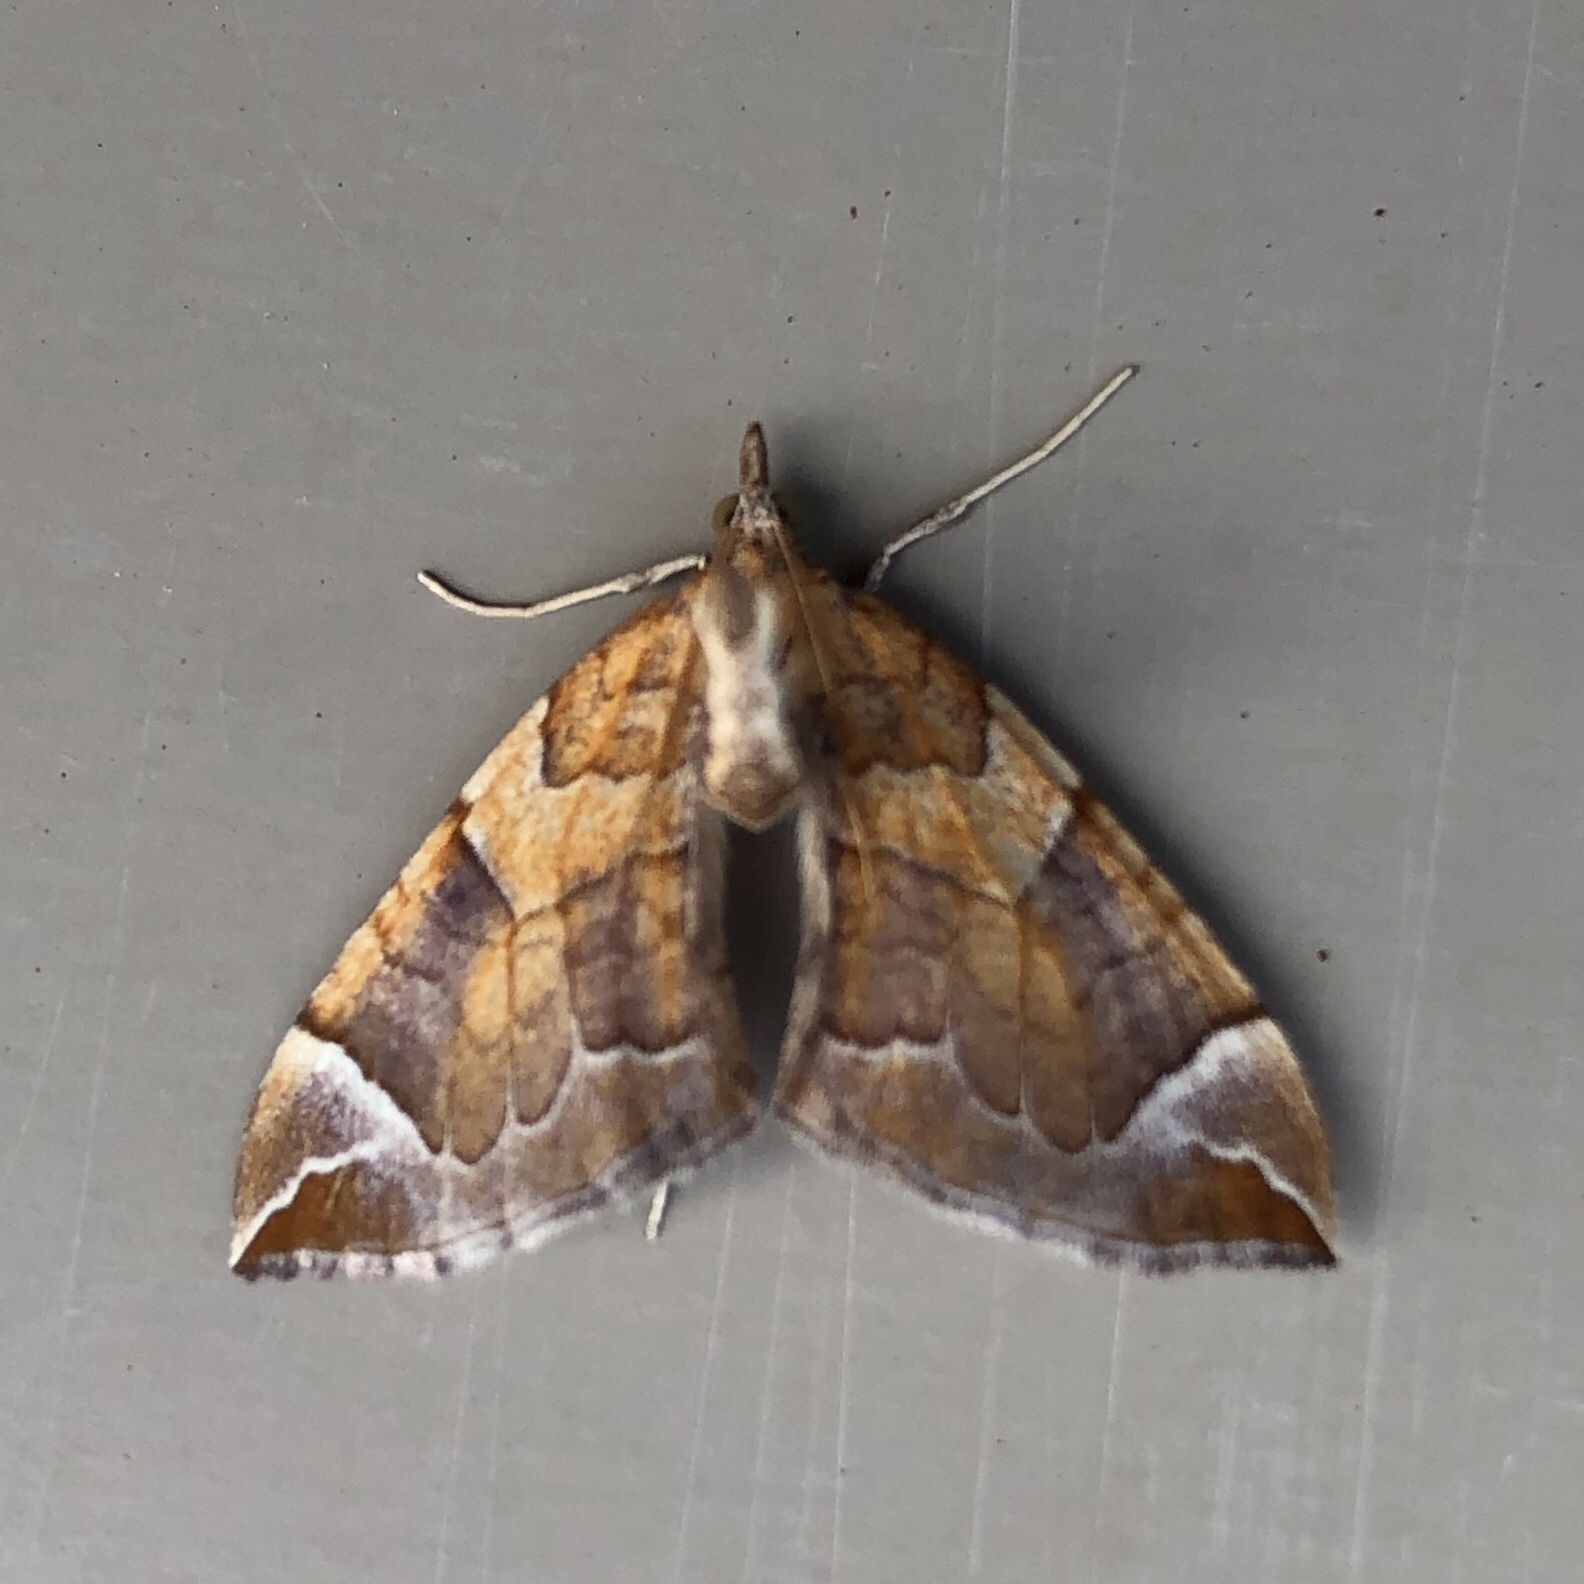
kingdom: Animalia
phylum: Arthropoda
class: Insecta
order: Lepidoptera
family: Geometridae
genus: Eulithis
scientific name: Eulithis testata
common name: Chevron
